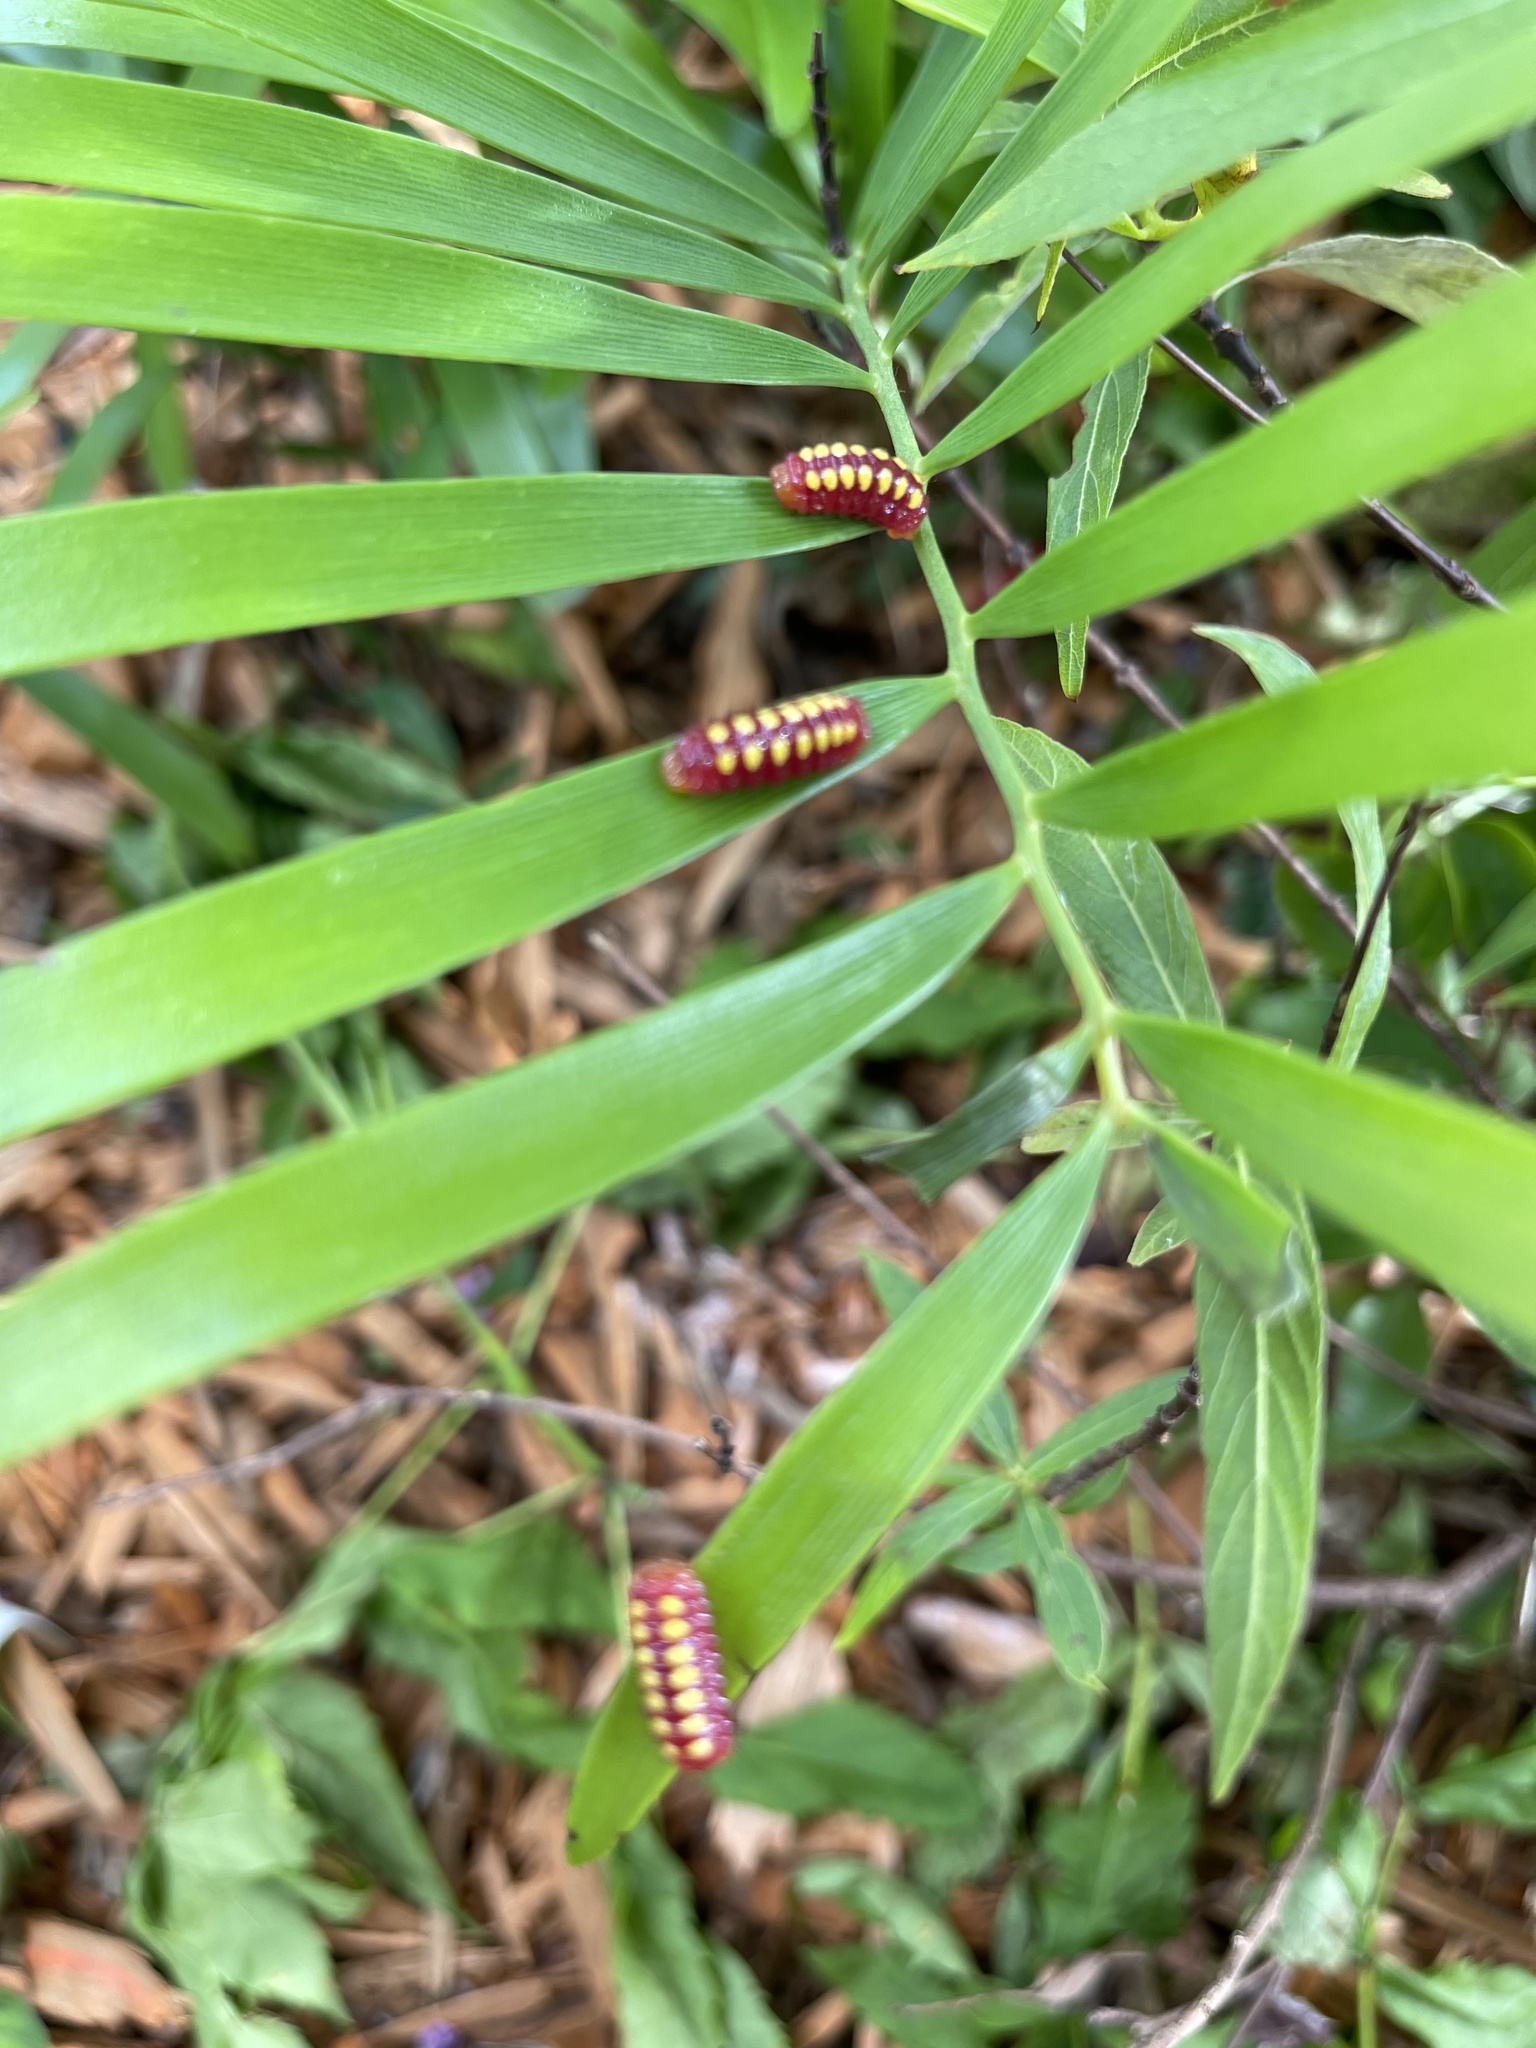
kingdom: Animalia
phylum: Arthropoda
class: Insecta
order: Lepidoptera
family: Lycaenidae
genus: Eumaeus
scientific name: Eumaeus atala
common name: Atala
